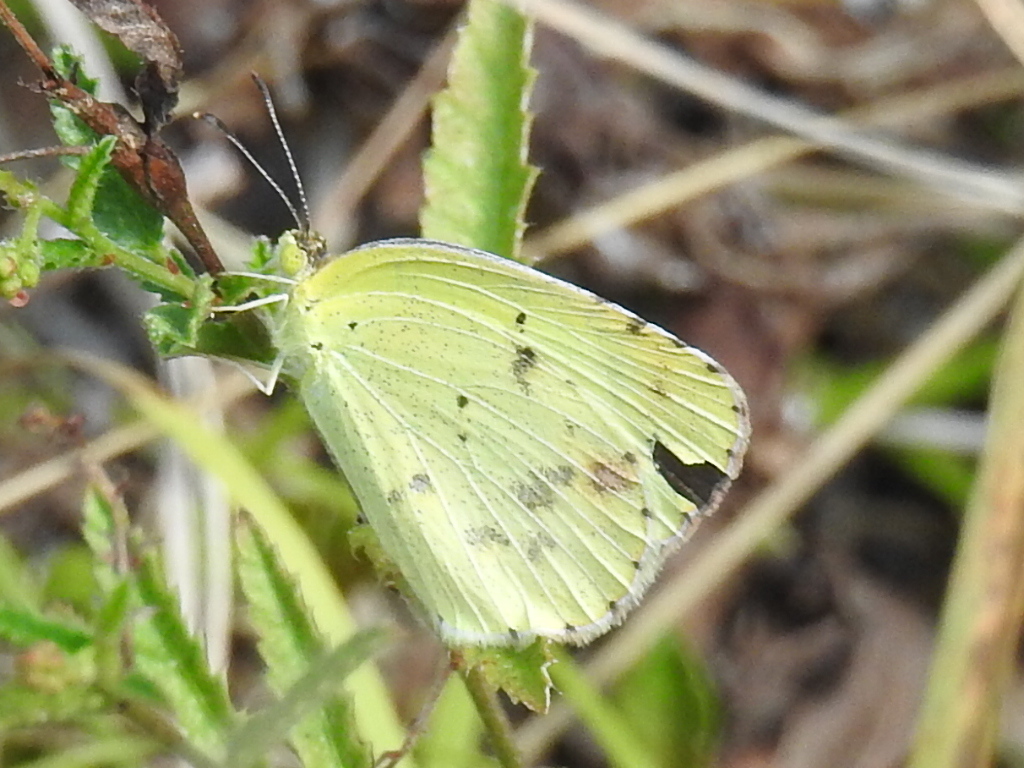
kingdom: Animalia
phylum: Arthropoda
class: Insecta
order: Lepidoptera
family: Pieridae
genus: Pyrisitia
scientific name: Pyrisitia lisa
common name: Little yellow
